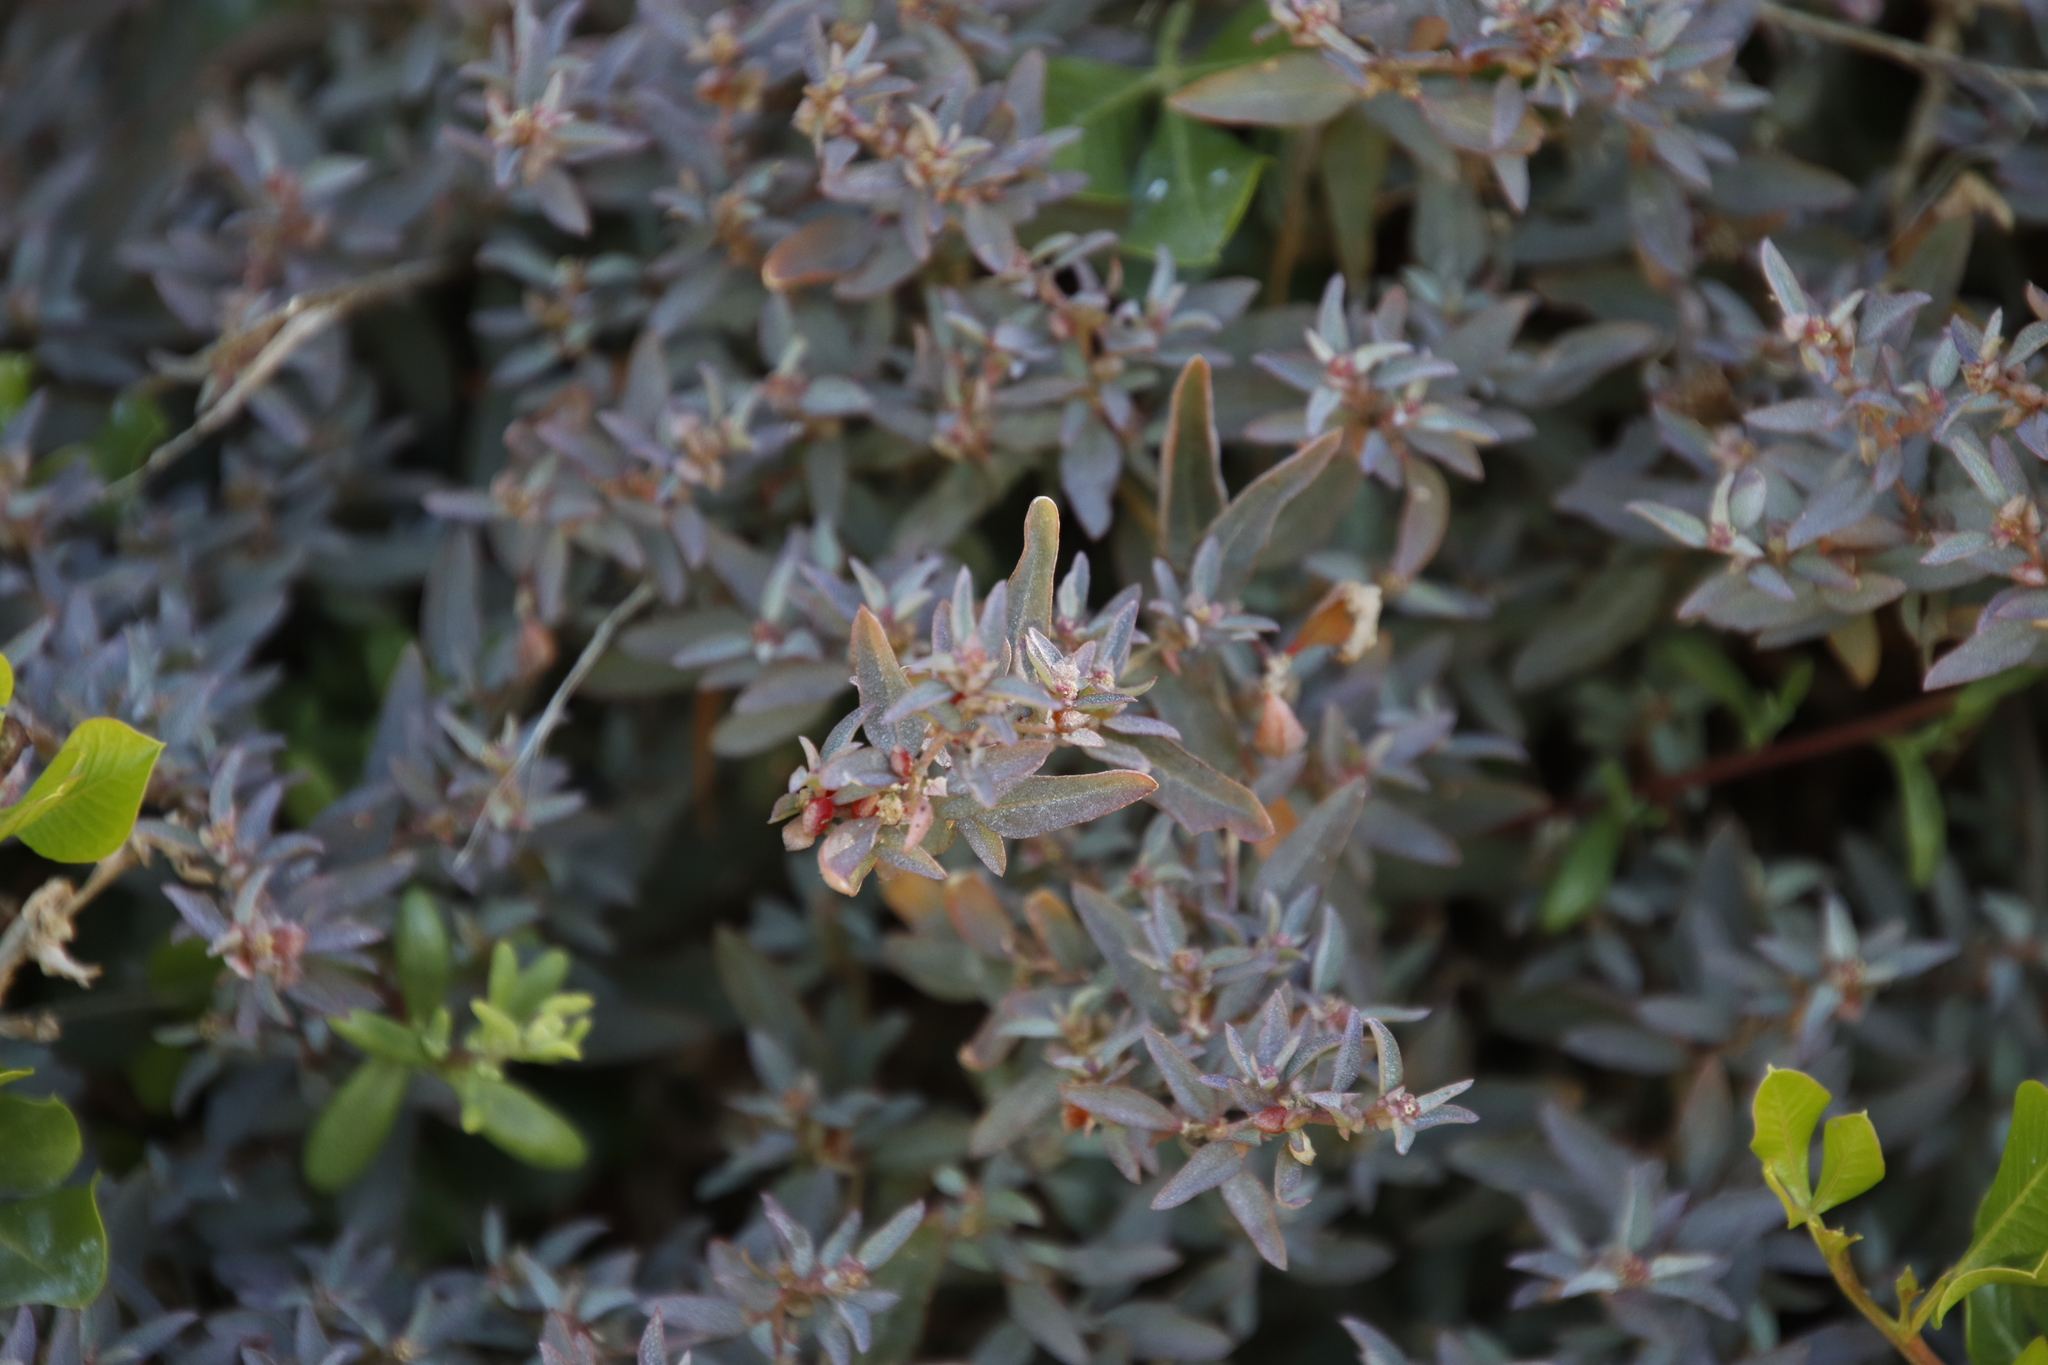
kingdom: Plantae
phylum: Tracheophyta
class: Magnoliopsida
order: Caryophyllales
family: Amaranthaceae
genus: Atriplex
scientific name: Atriplex semibaccata
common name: Australian saltbush
